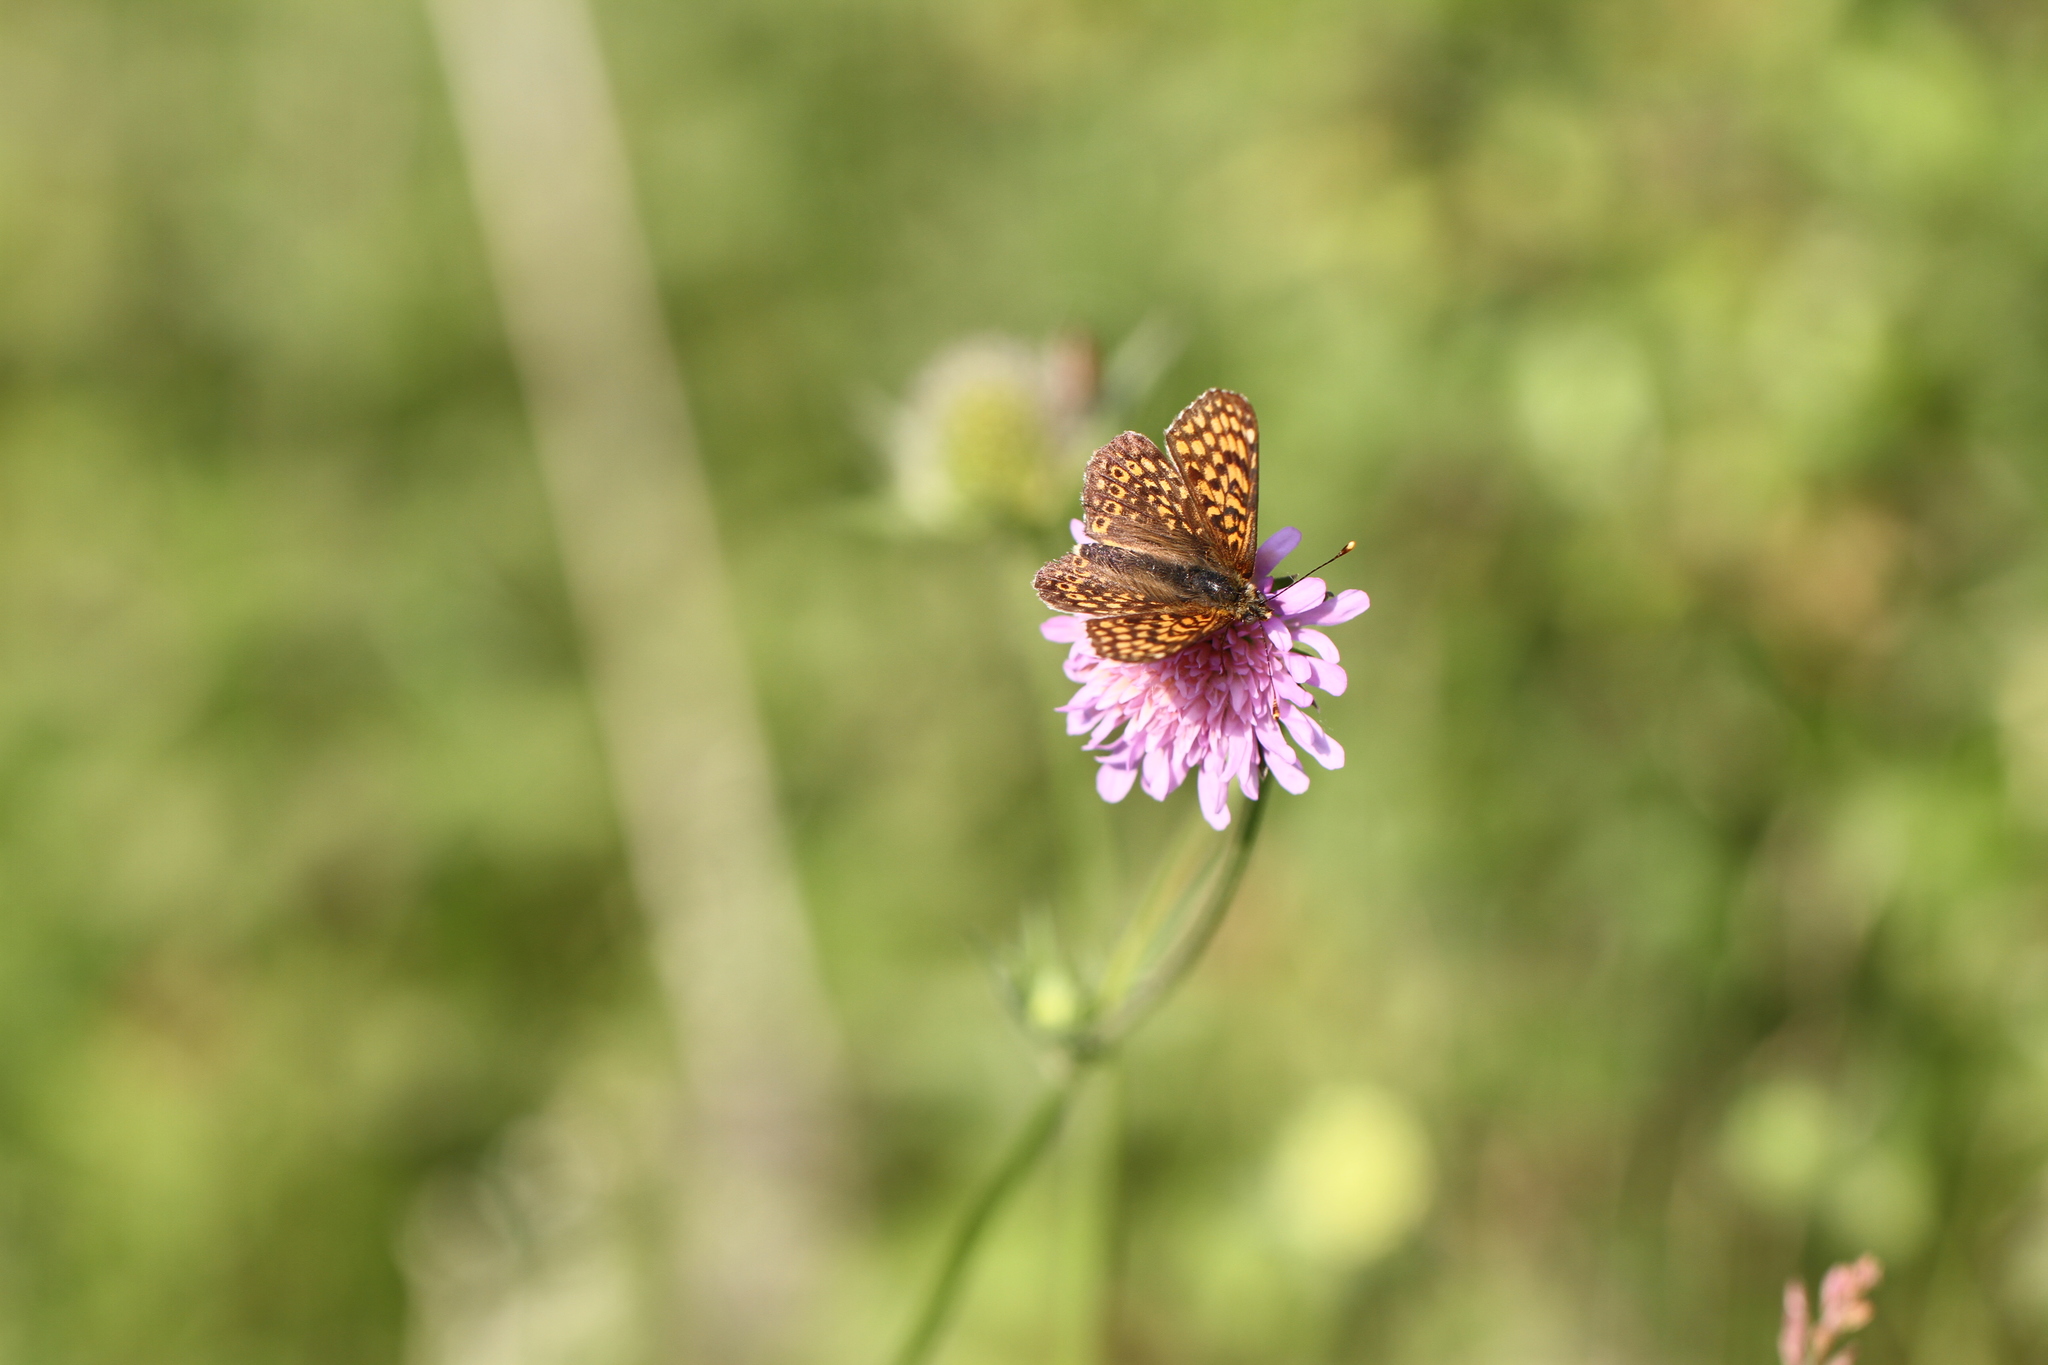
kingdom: Animalia
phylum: Arthropoda
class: Insecta
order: Lepidoptera
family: Nymphalidae
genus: Melitaea
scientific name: Melitaea cinxia
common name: Glanville fritillary
